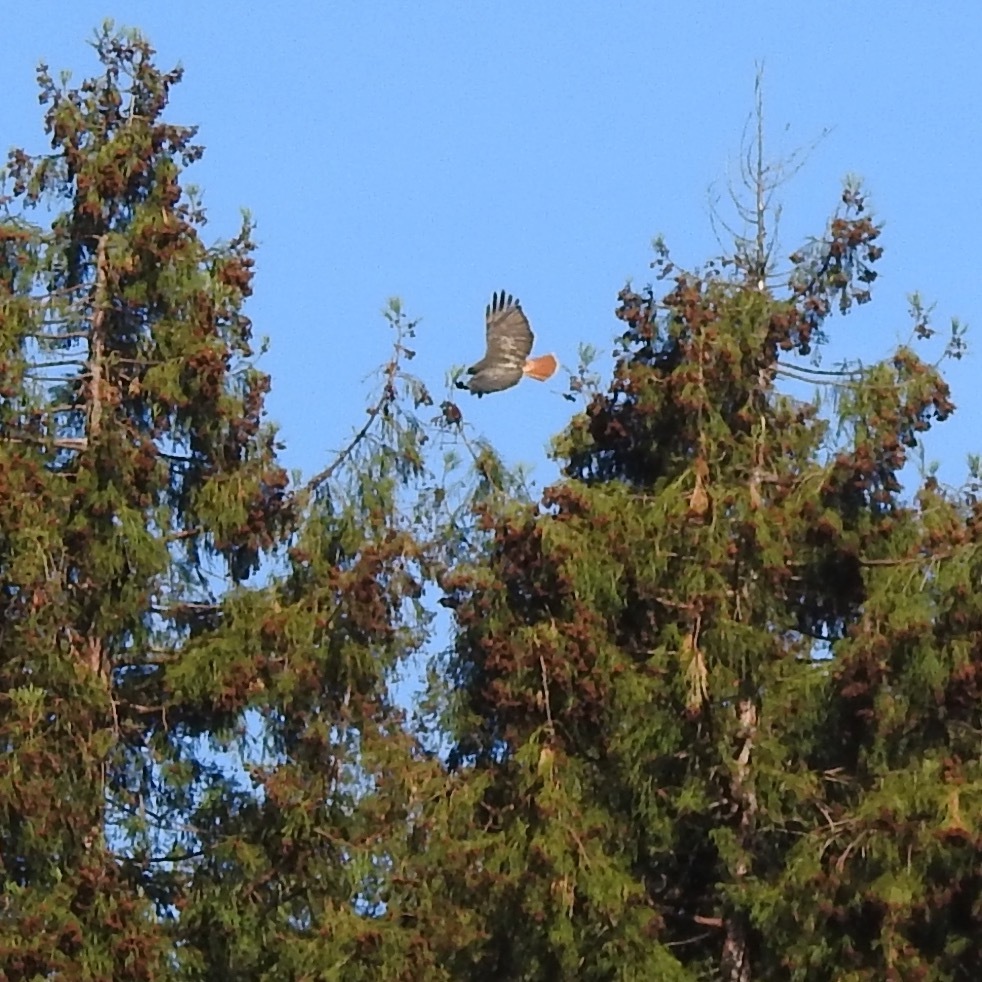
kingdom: Animalia
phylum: Chordata
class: Aves
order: Accipitriformes
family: Accipitridae
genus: Buteo
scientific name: Buteo jamaicensis
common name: Red-tailed hawk
